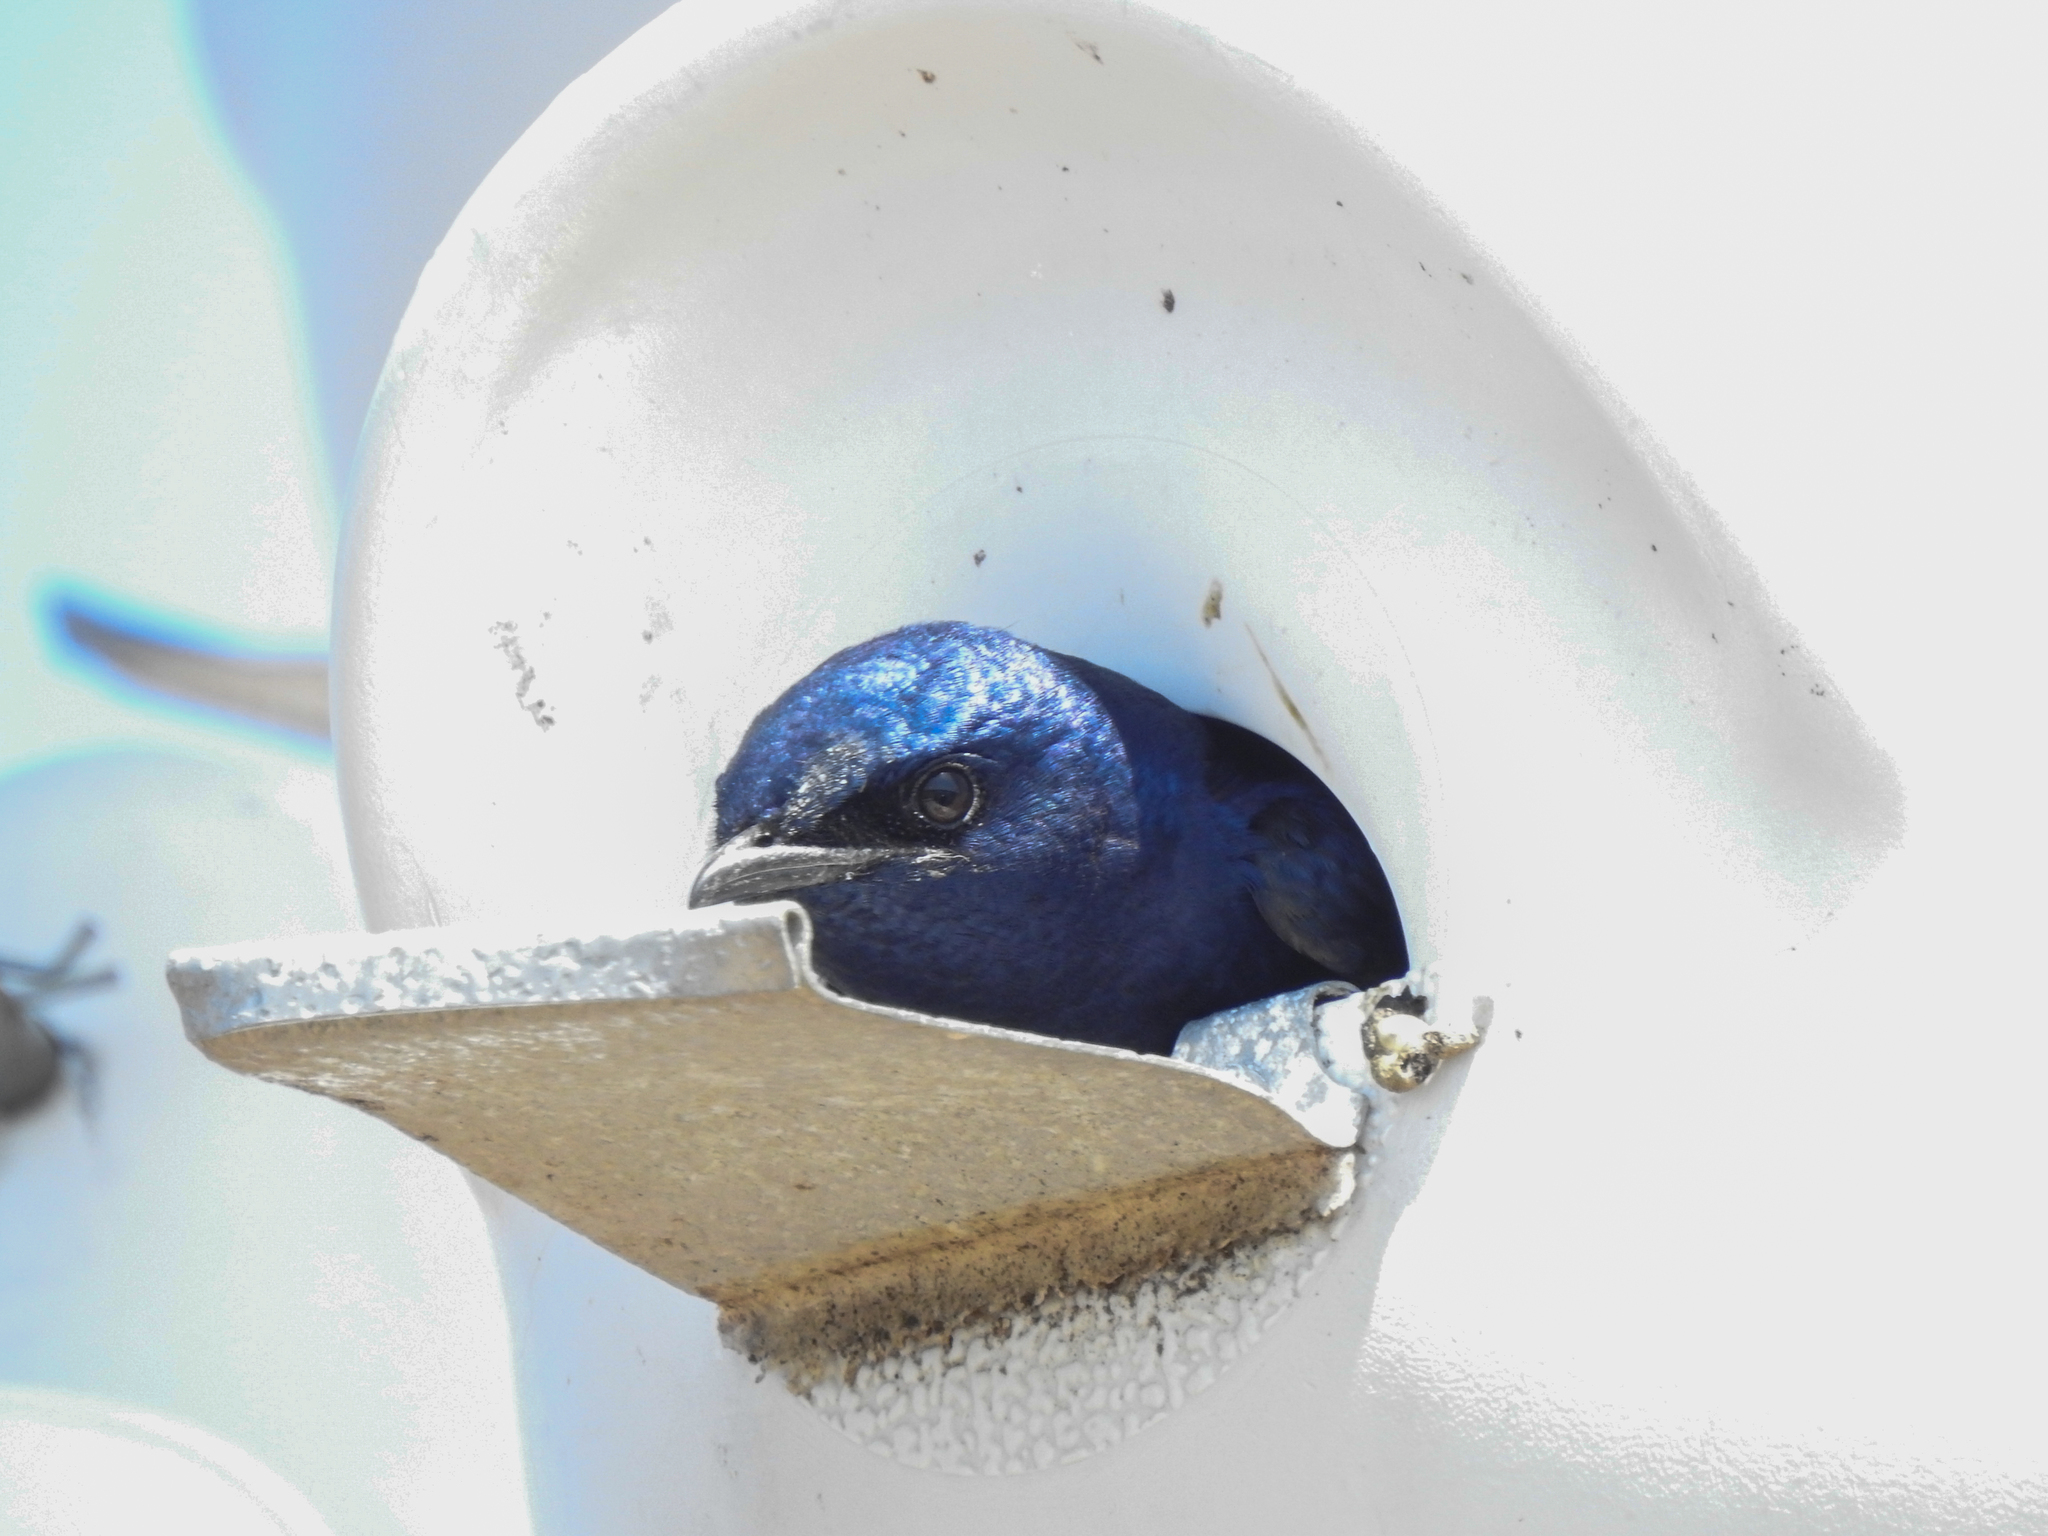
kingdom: Animalia
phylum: Chordata
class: Aves
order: Passeriformes
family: Hirundinidae
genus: Progne
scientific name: Progne subis
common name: Purple martin
